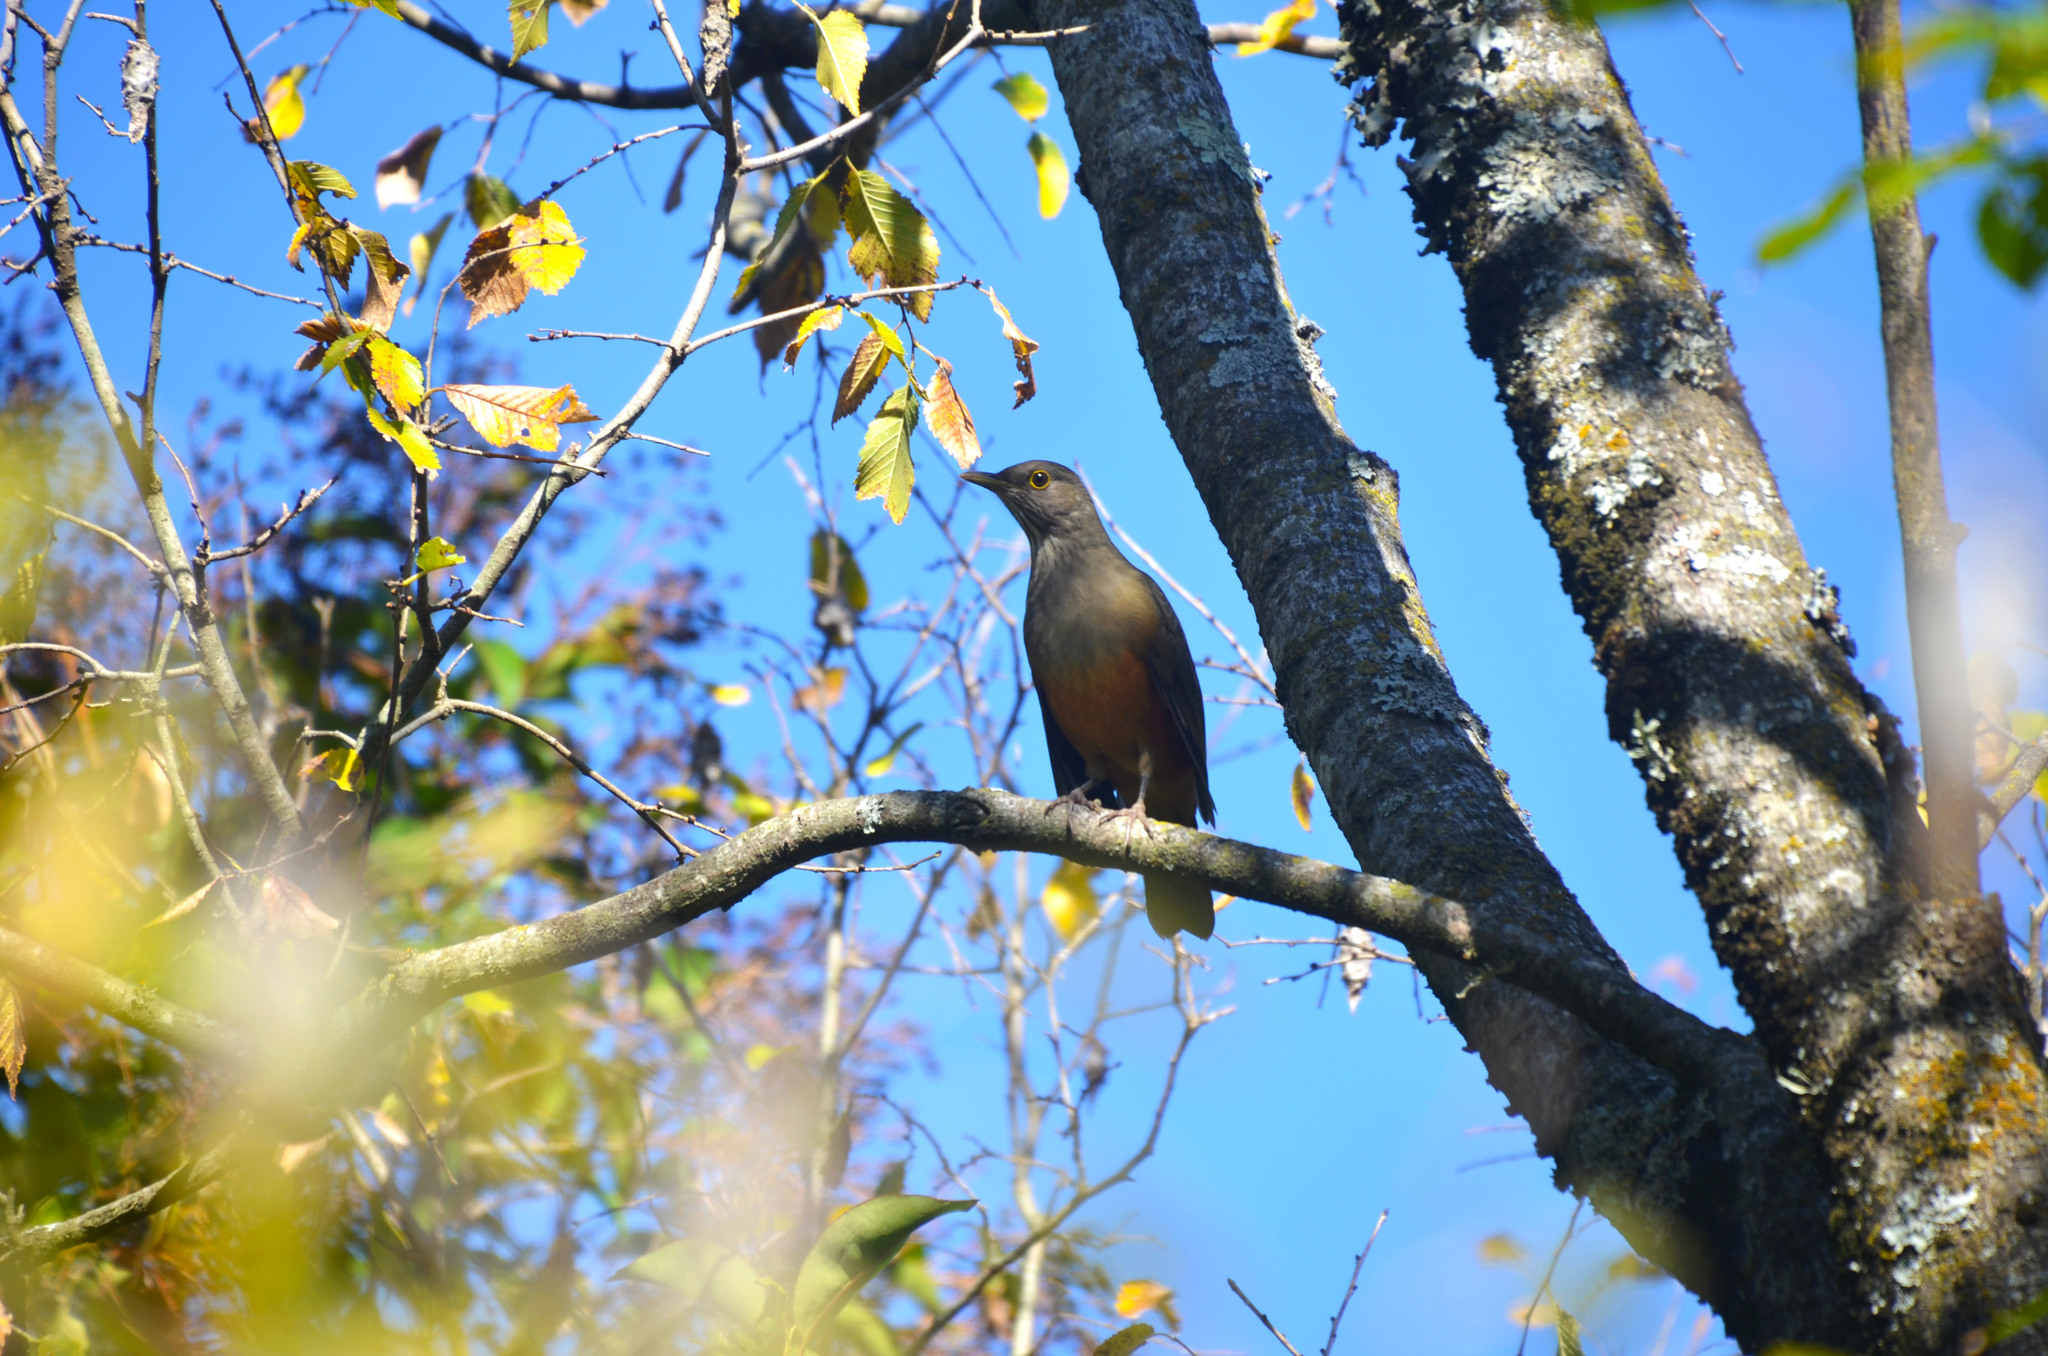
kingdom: Animalia
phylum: Chordata
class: Aves
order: Passeriformes
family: Turdidae
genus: Turdus
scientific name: Turdus rufiventris
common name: Rufous-bellied thrush
